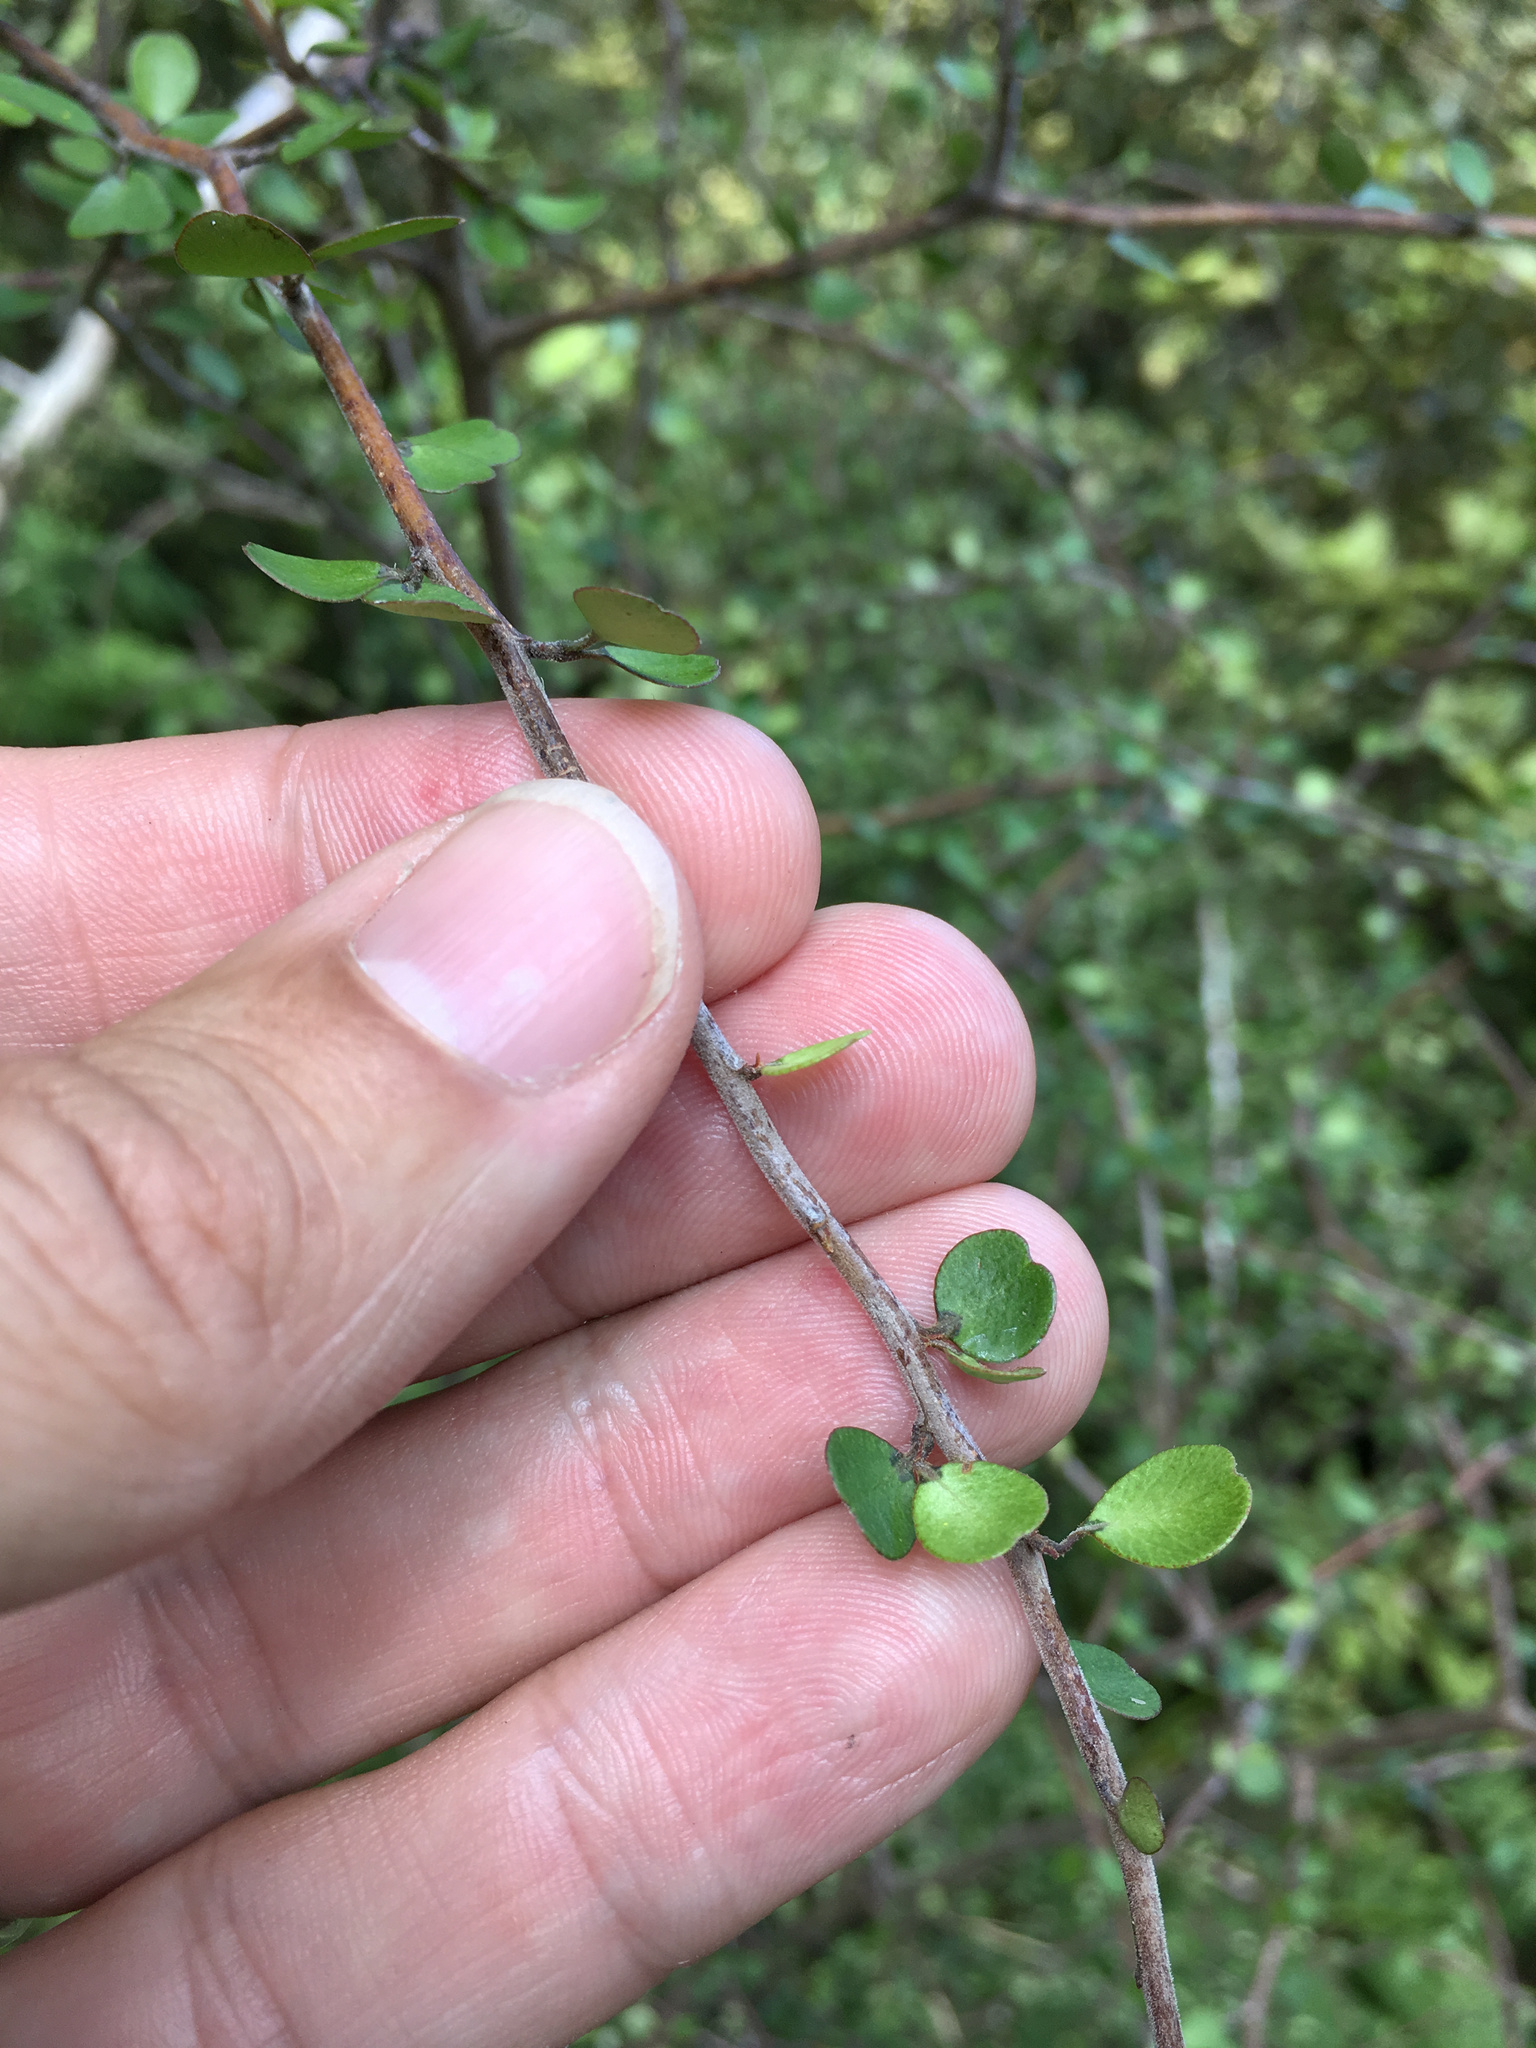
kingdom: Plantae
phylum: Tracheophyta
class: Magnoliopsida
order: Ericales
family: Primulaceae
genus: Myrsine
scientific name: Myrsine divaricata
